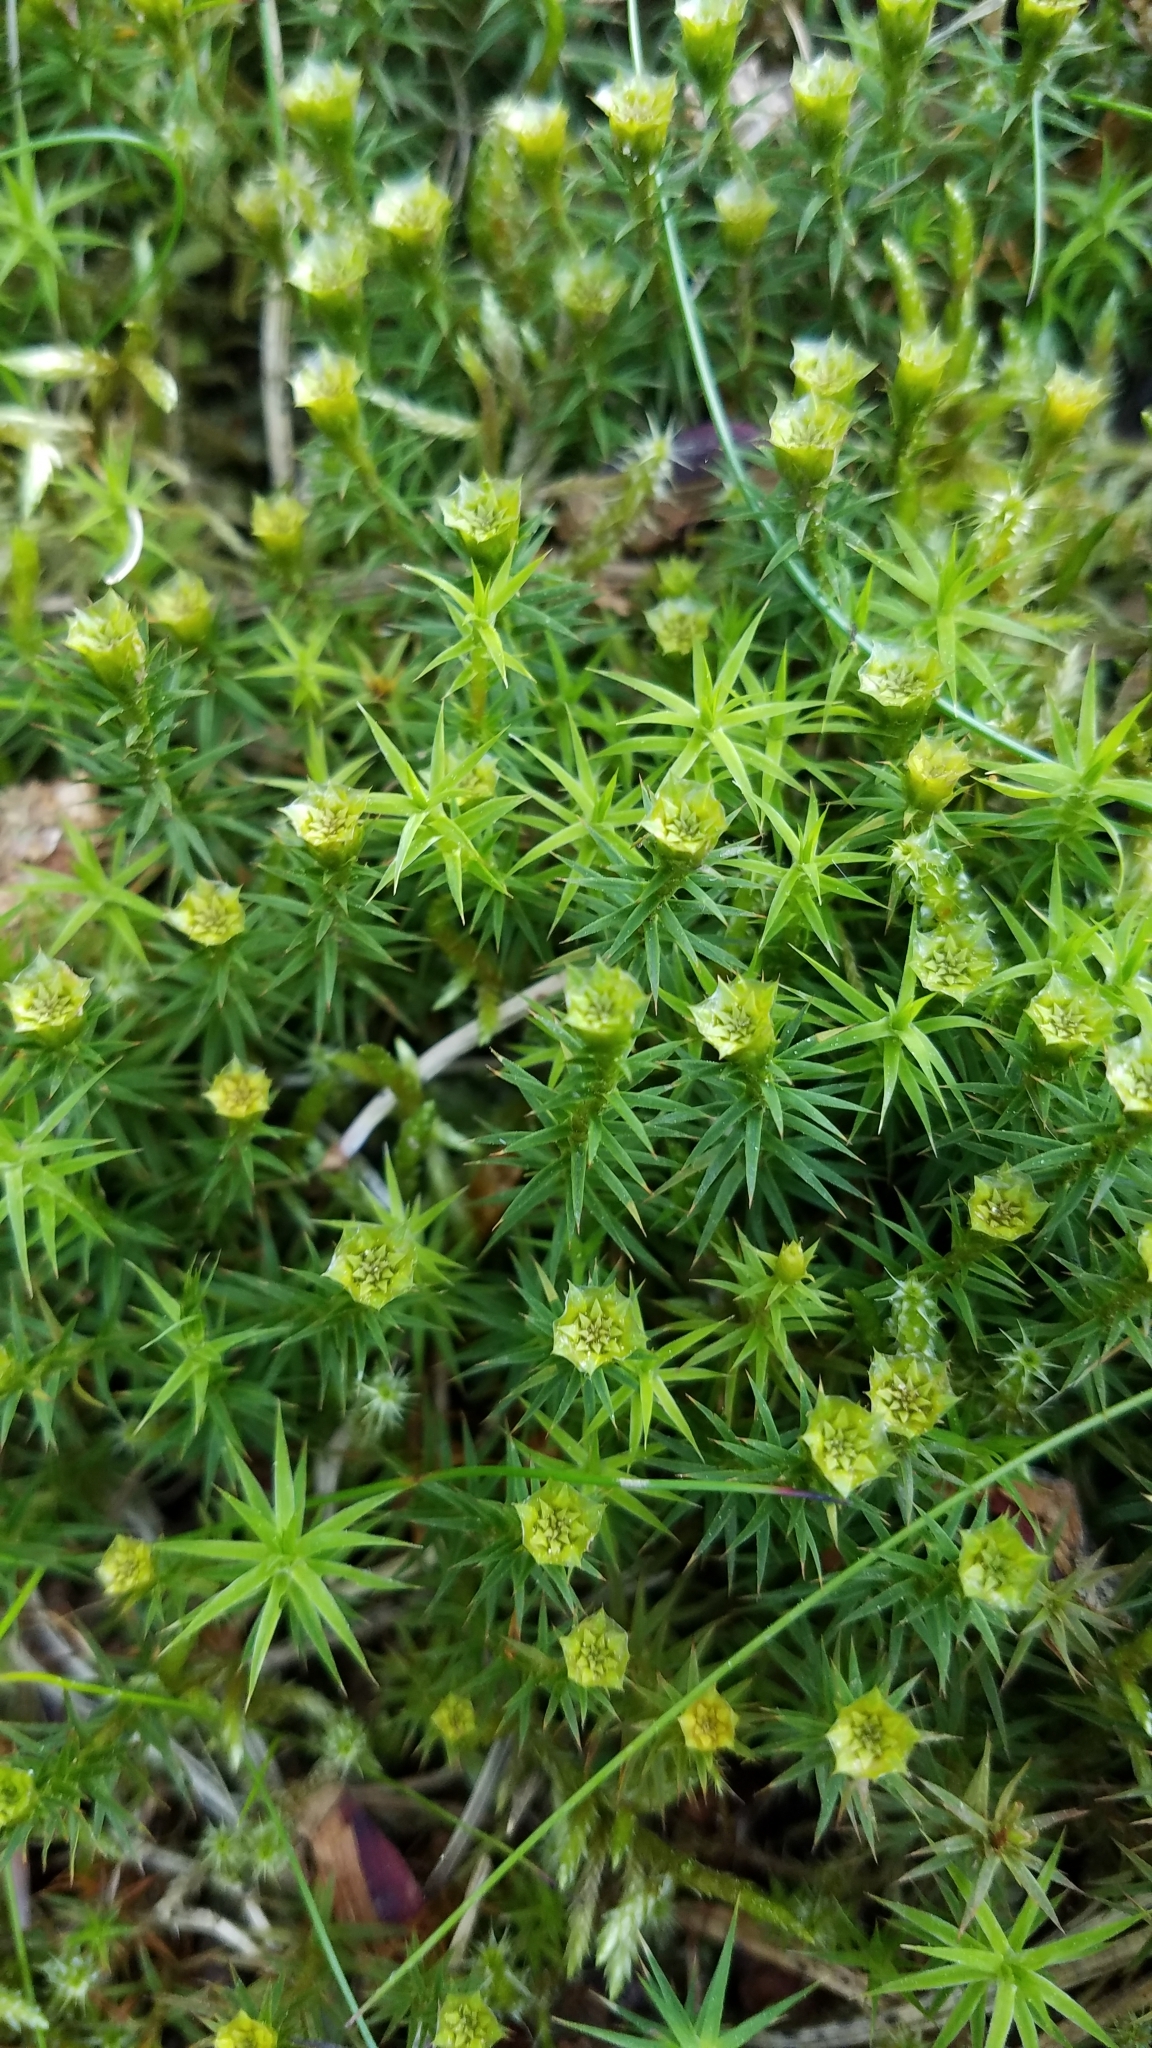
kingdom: Plantae
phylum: Bryophyta
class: Polytrichopsida
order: Polytrichales
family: Polytrichaceae
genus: Polytrichum
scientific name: Polytrichum formosum
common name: Bank haircap moss
